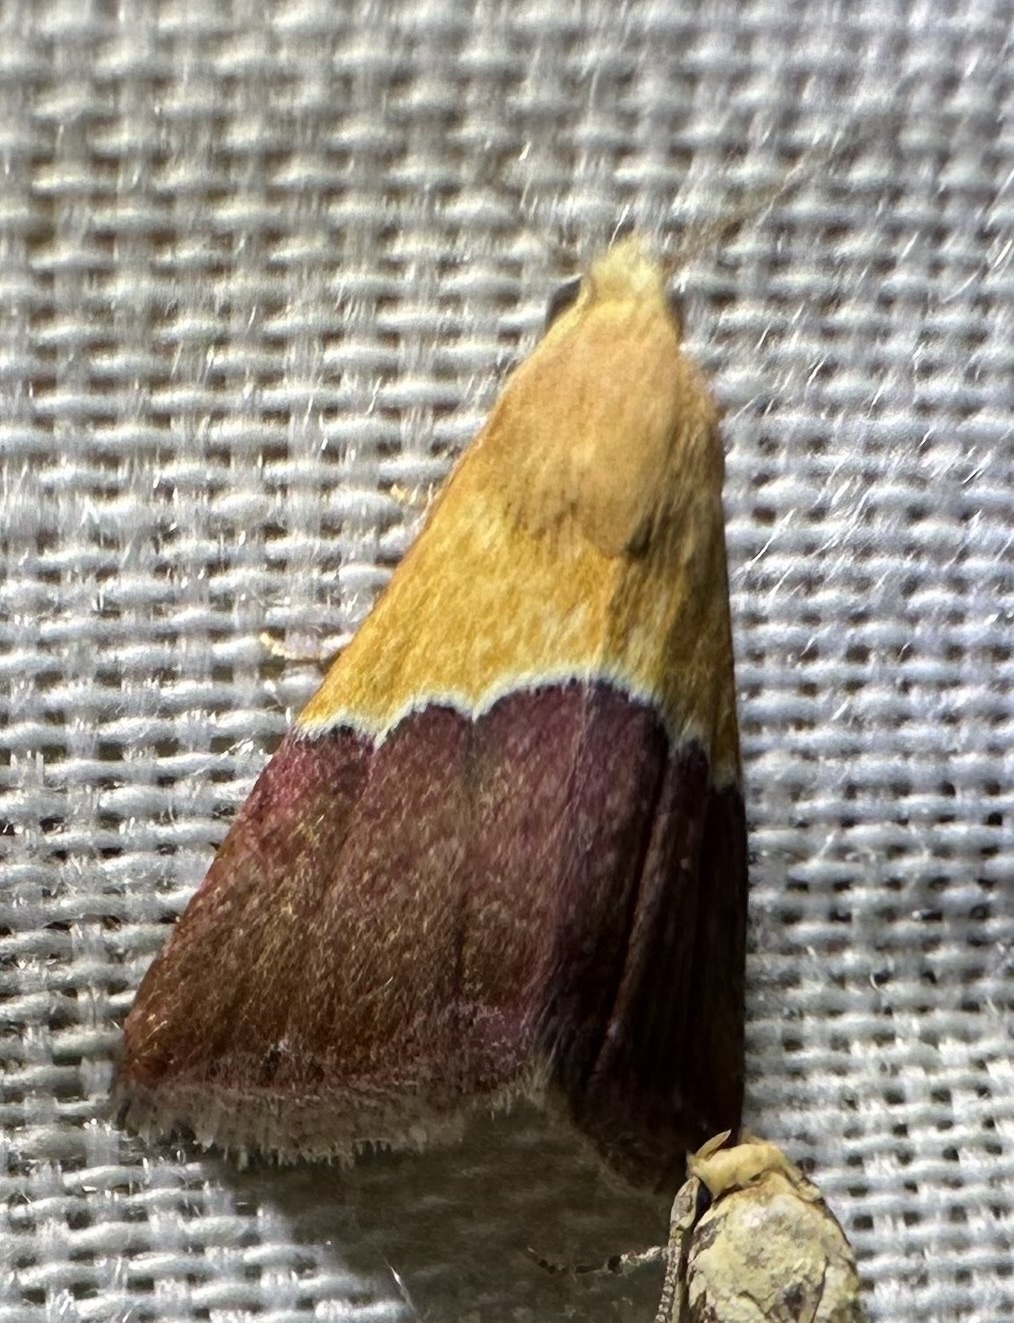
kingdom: Animalia
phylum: Arthropoda
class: Insecta
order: Lepidoptera
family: Noctuidae
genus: Eublemma
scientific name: Eublemma caffrorum
